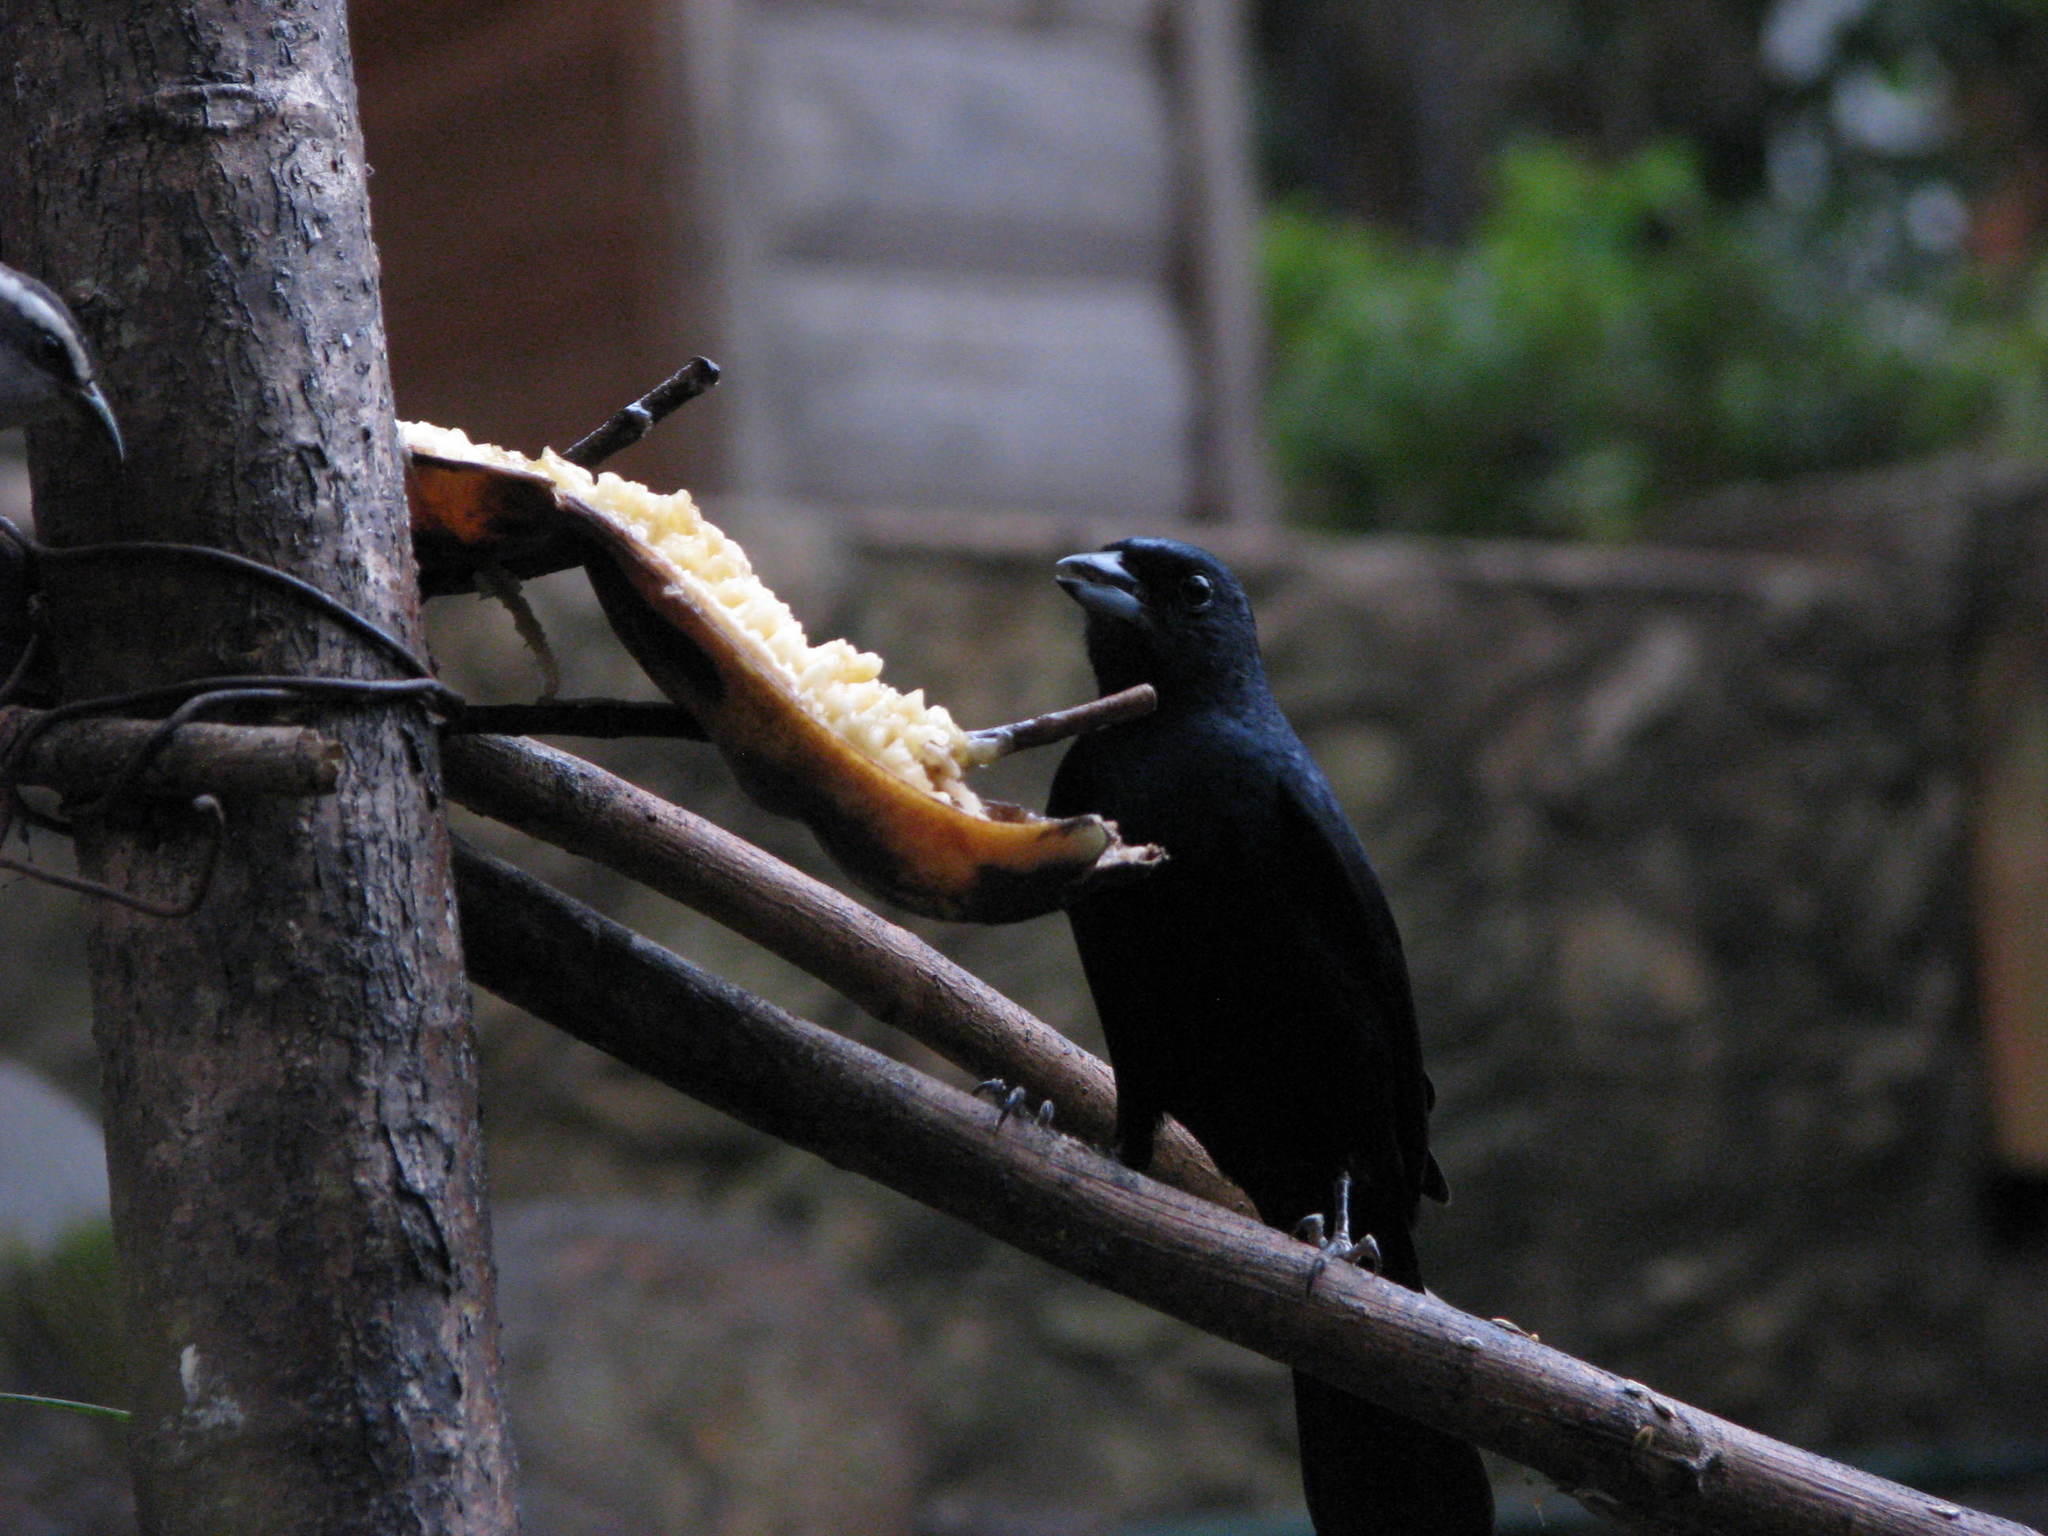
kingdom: Animalia
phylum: Chordata
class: Aves
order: Passeriformes
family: Thraupidae
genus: Tachyphonus
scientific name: Tachyphonus coronatus
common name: Ruby-crowned tanager
